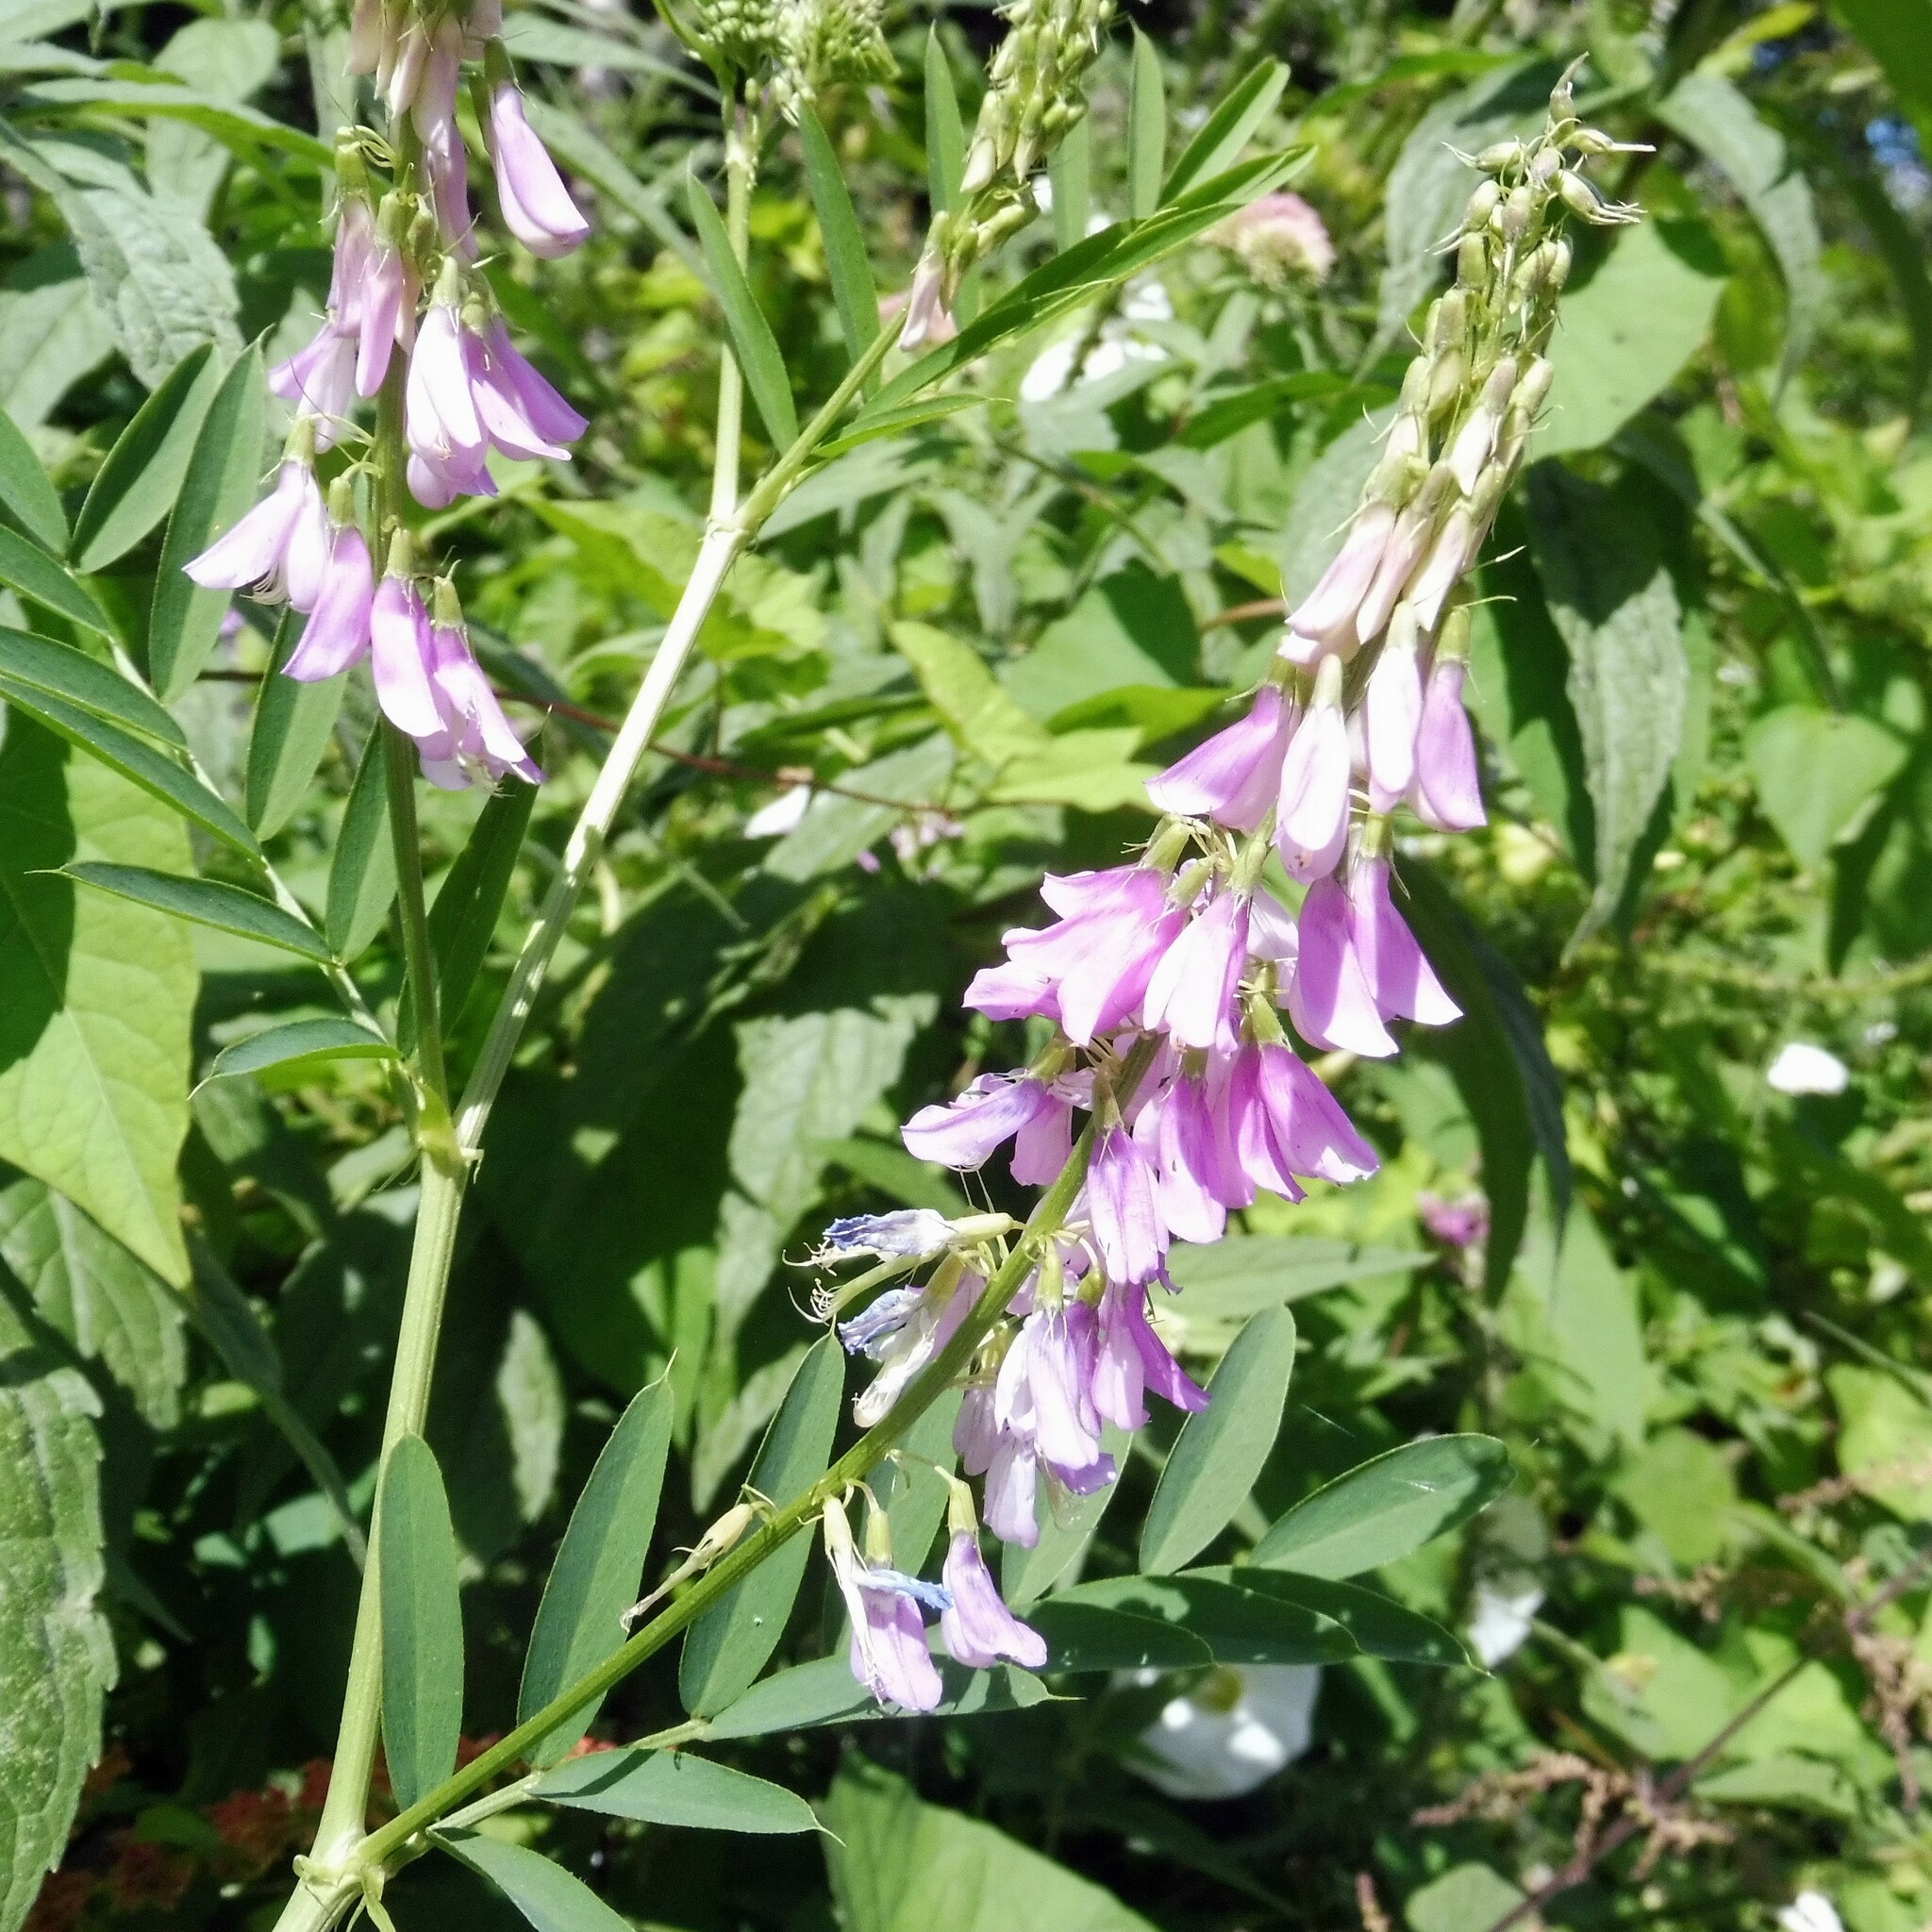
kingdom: Plantae
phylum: Tracheophyta
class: Magnoliopsida
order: Fabales
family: Fabaceae
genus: Galega
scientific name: Galega officinalis
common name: Goat's-rue
